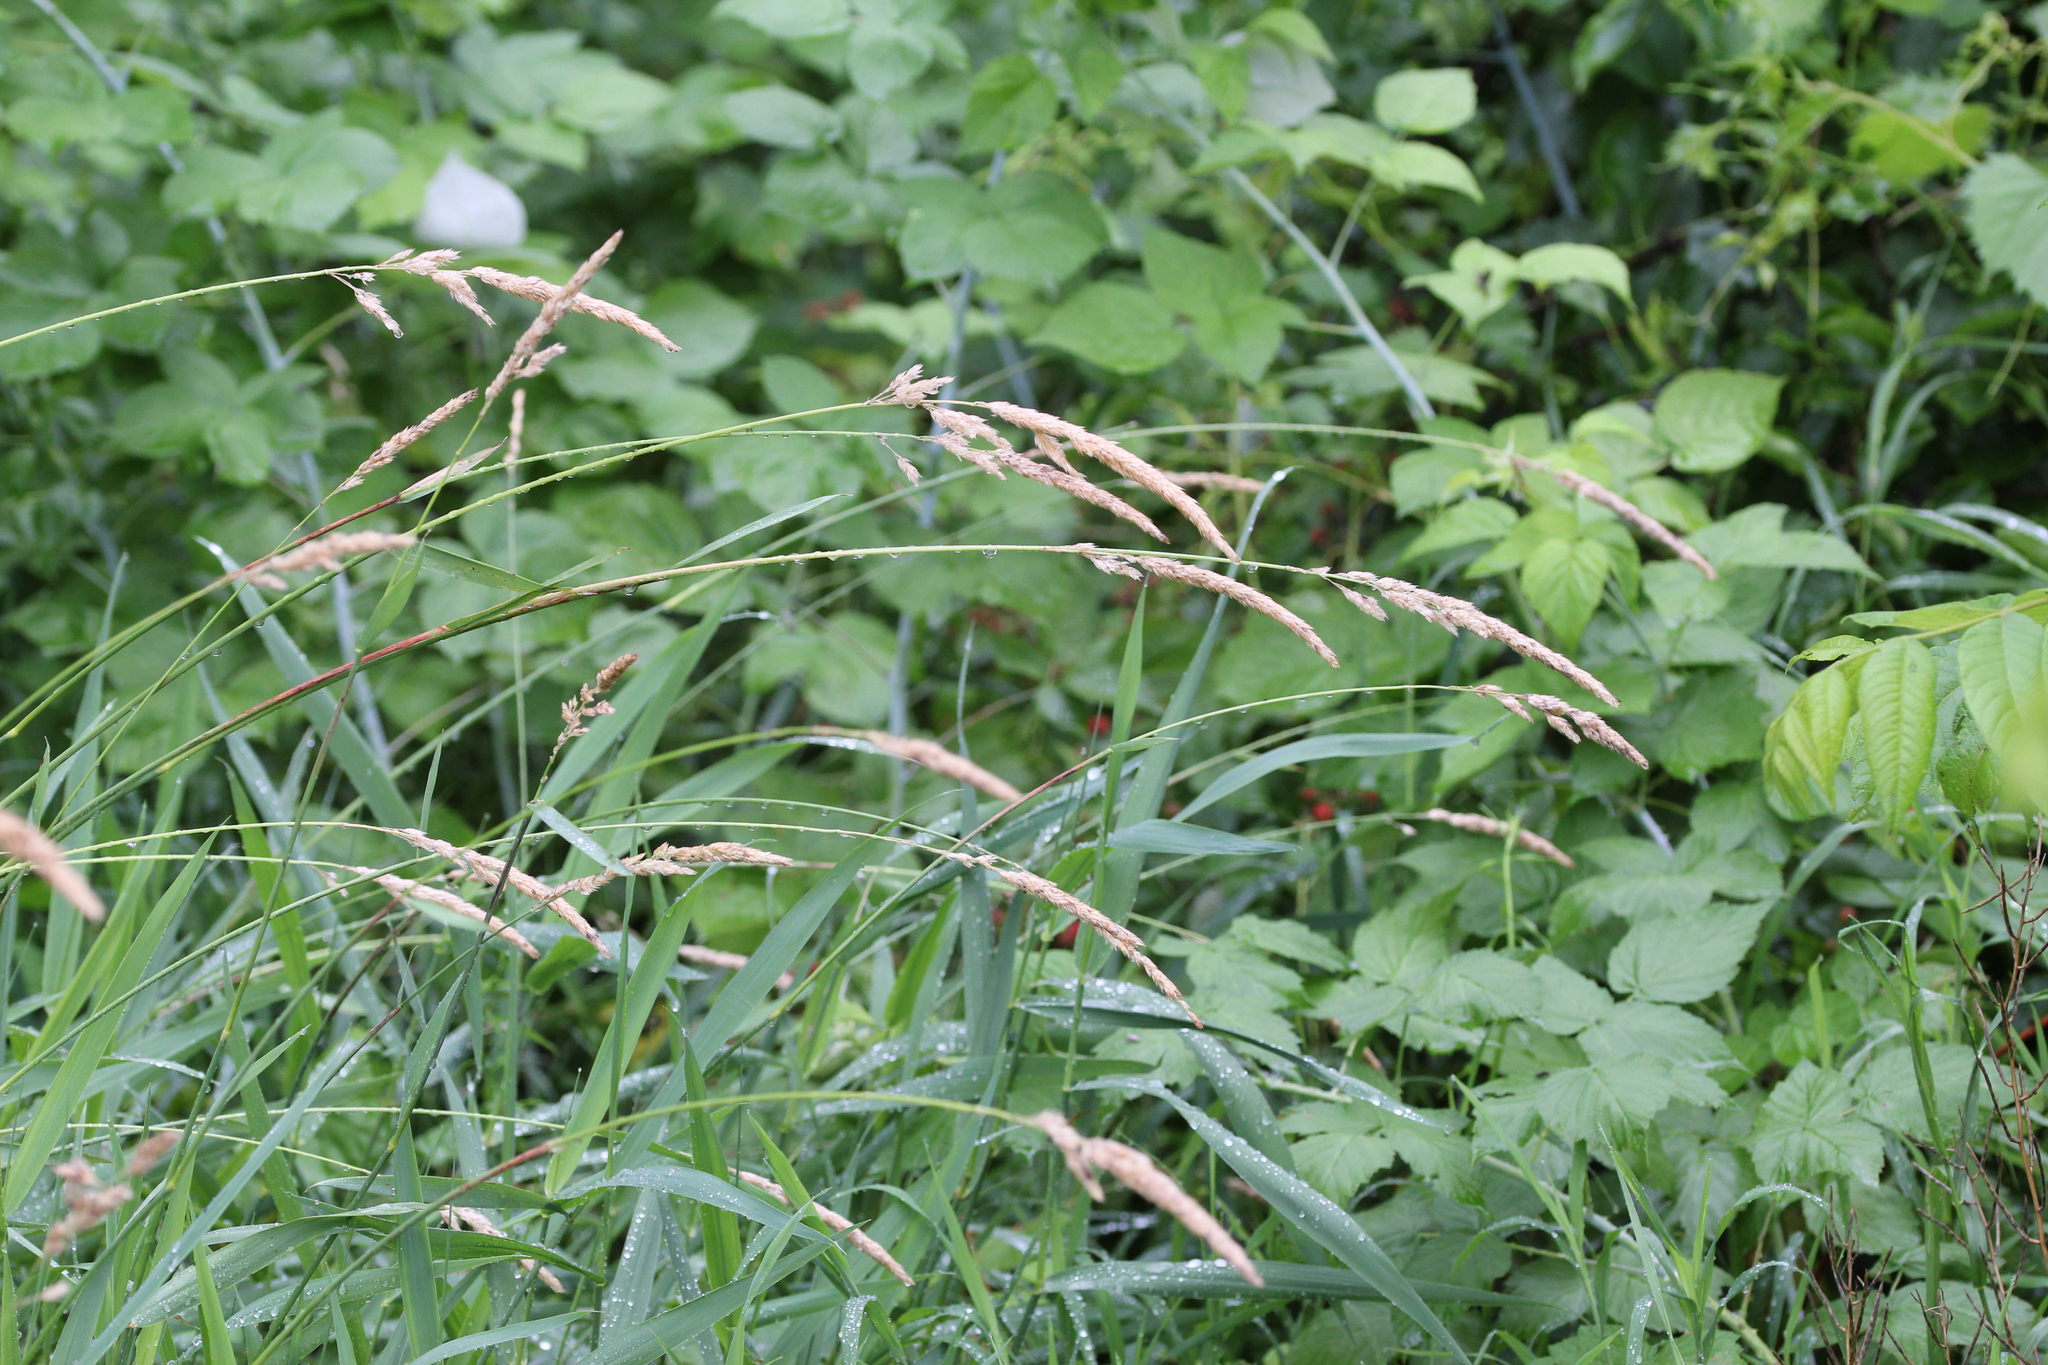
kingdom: Plantae
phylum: Tracheophyta
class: Liliopsida
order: Poales
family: Poaceae
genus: Phalaris
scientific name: Phalaris arundinacea
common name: Reed canary-grass
